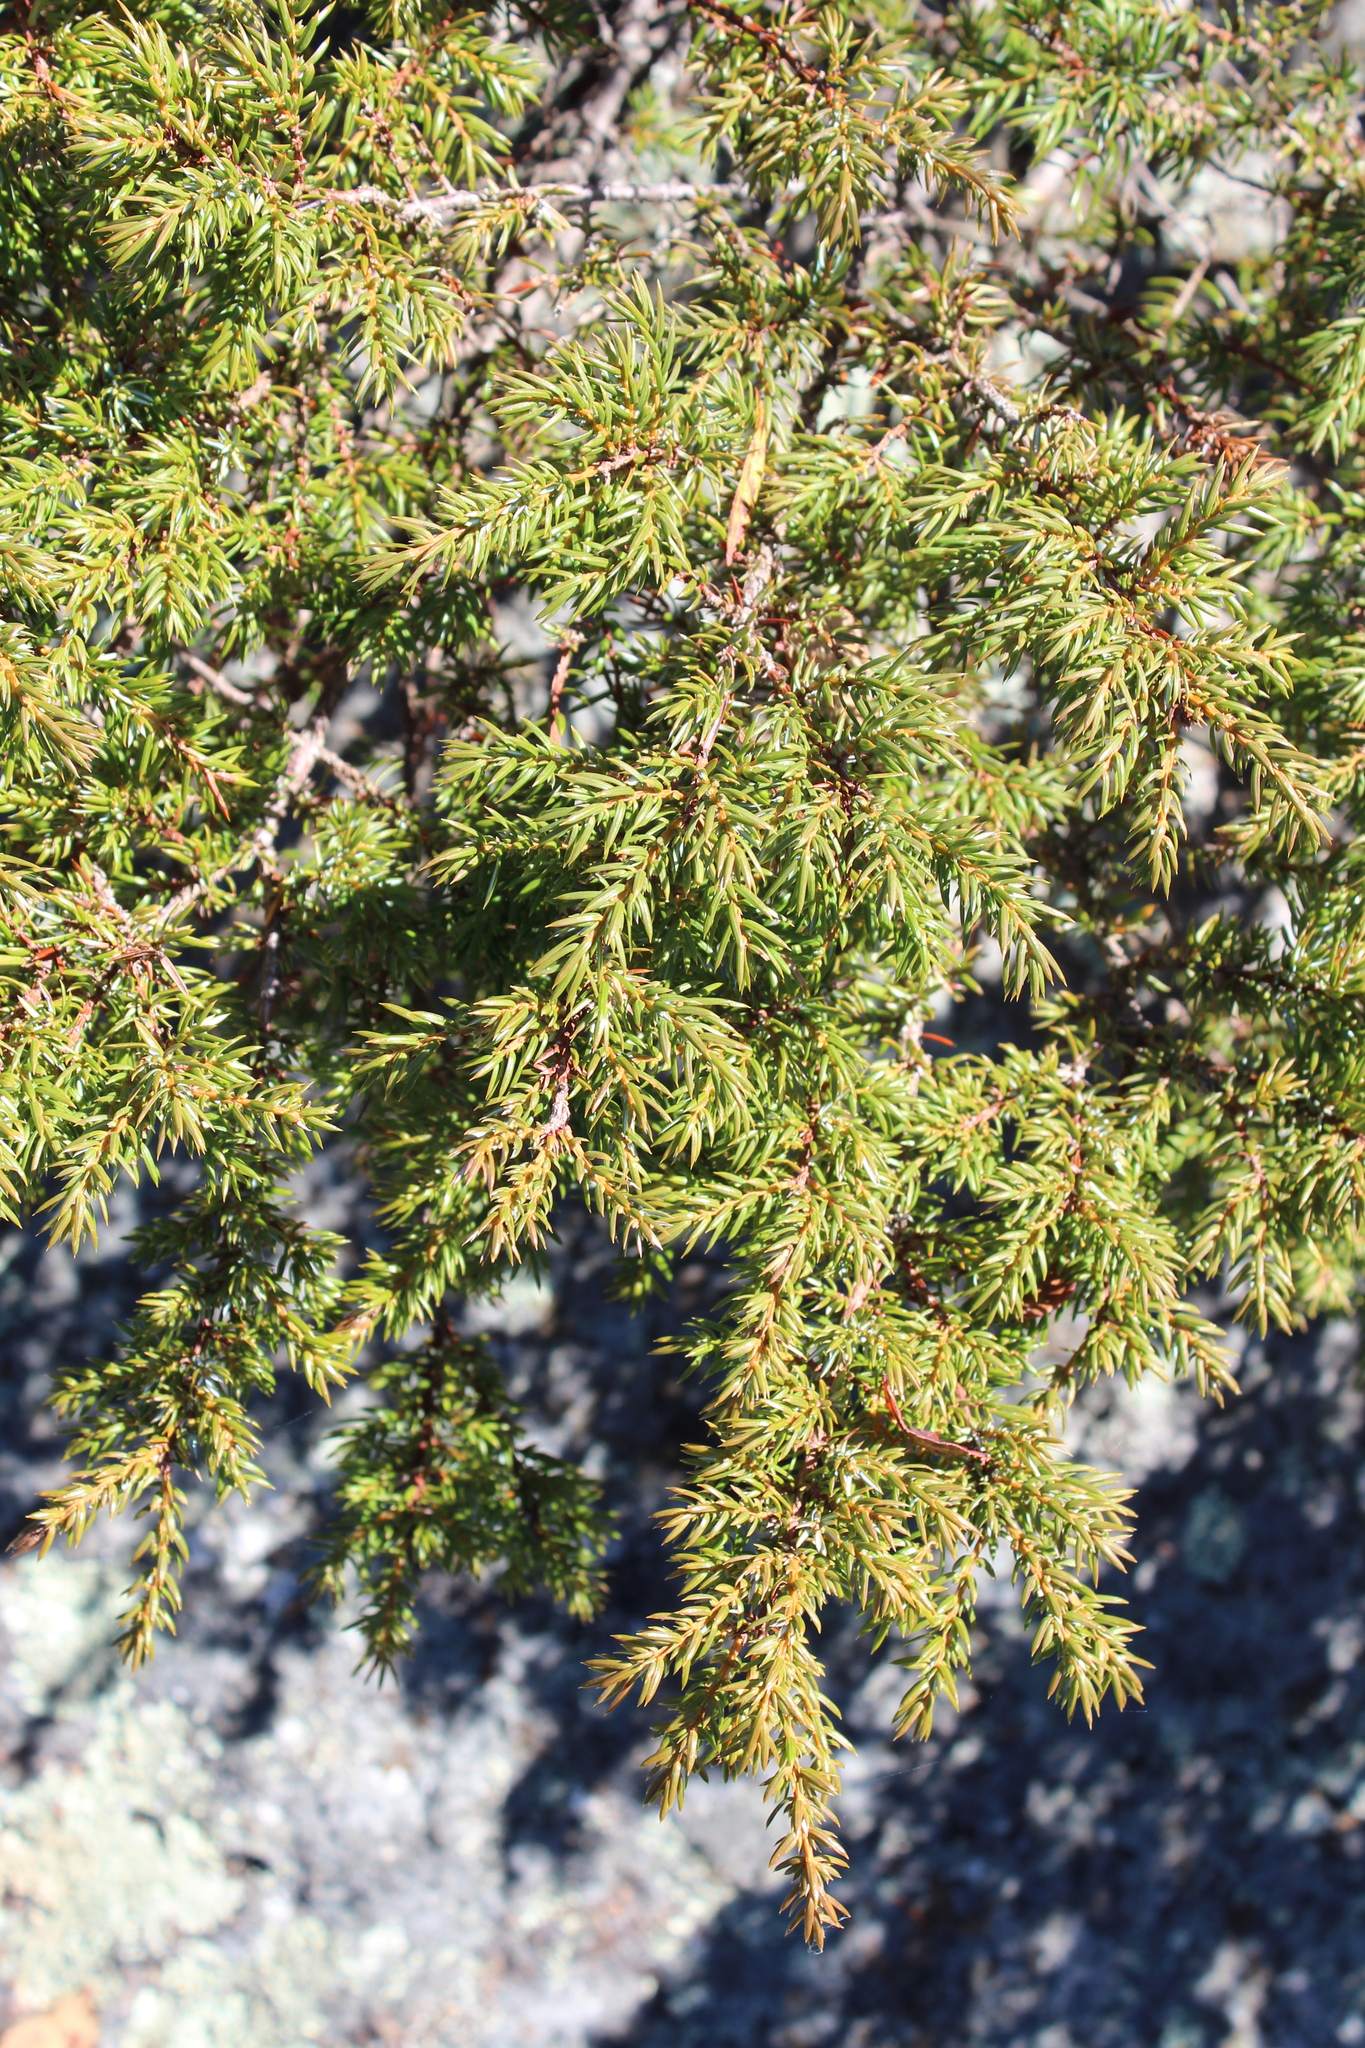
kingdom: Plantae
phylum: Tracheophyta
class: Pinopsida
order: Pinales
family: Cupressaceae
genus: Juniperus
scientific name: Juniperus communis
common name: Common juniper
